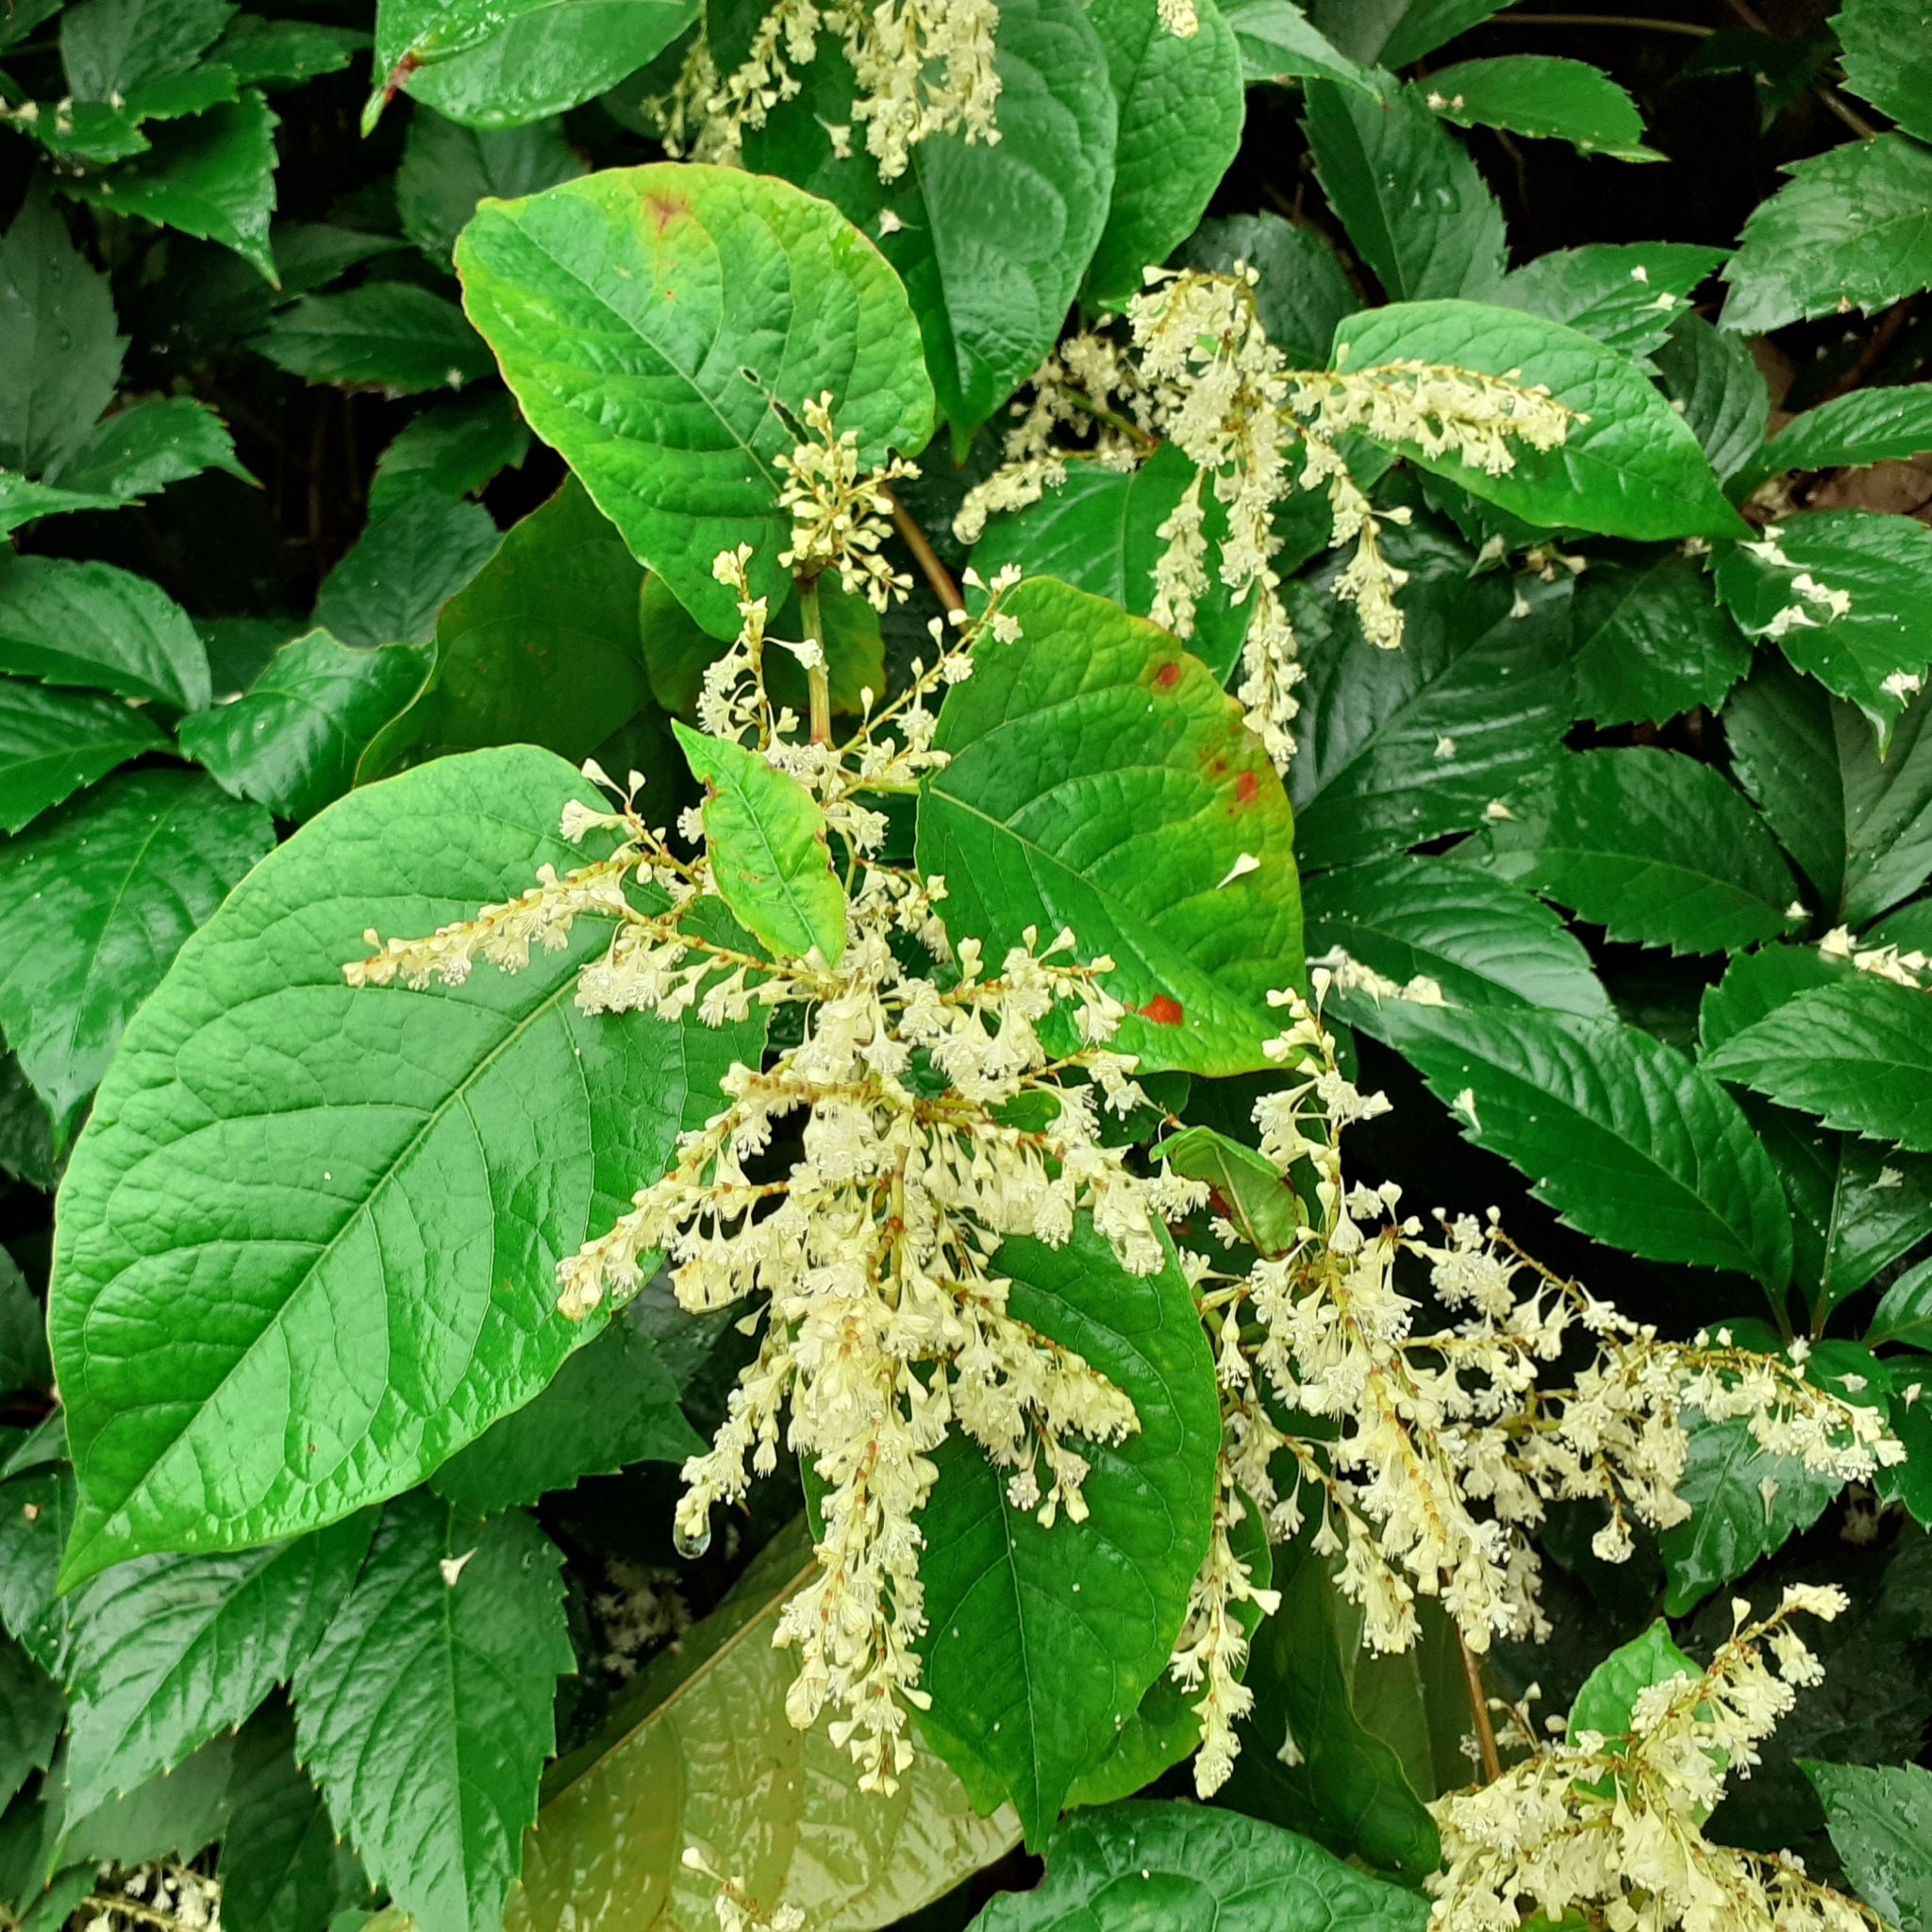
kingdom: Plantae
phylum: Tracheophyta
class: Magnoliopsida
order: Caryophyllales
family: Polygonaceae
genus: Reynoutria
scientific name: Reynoutria japonica
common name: Japanese knotweed
